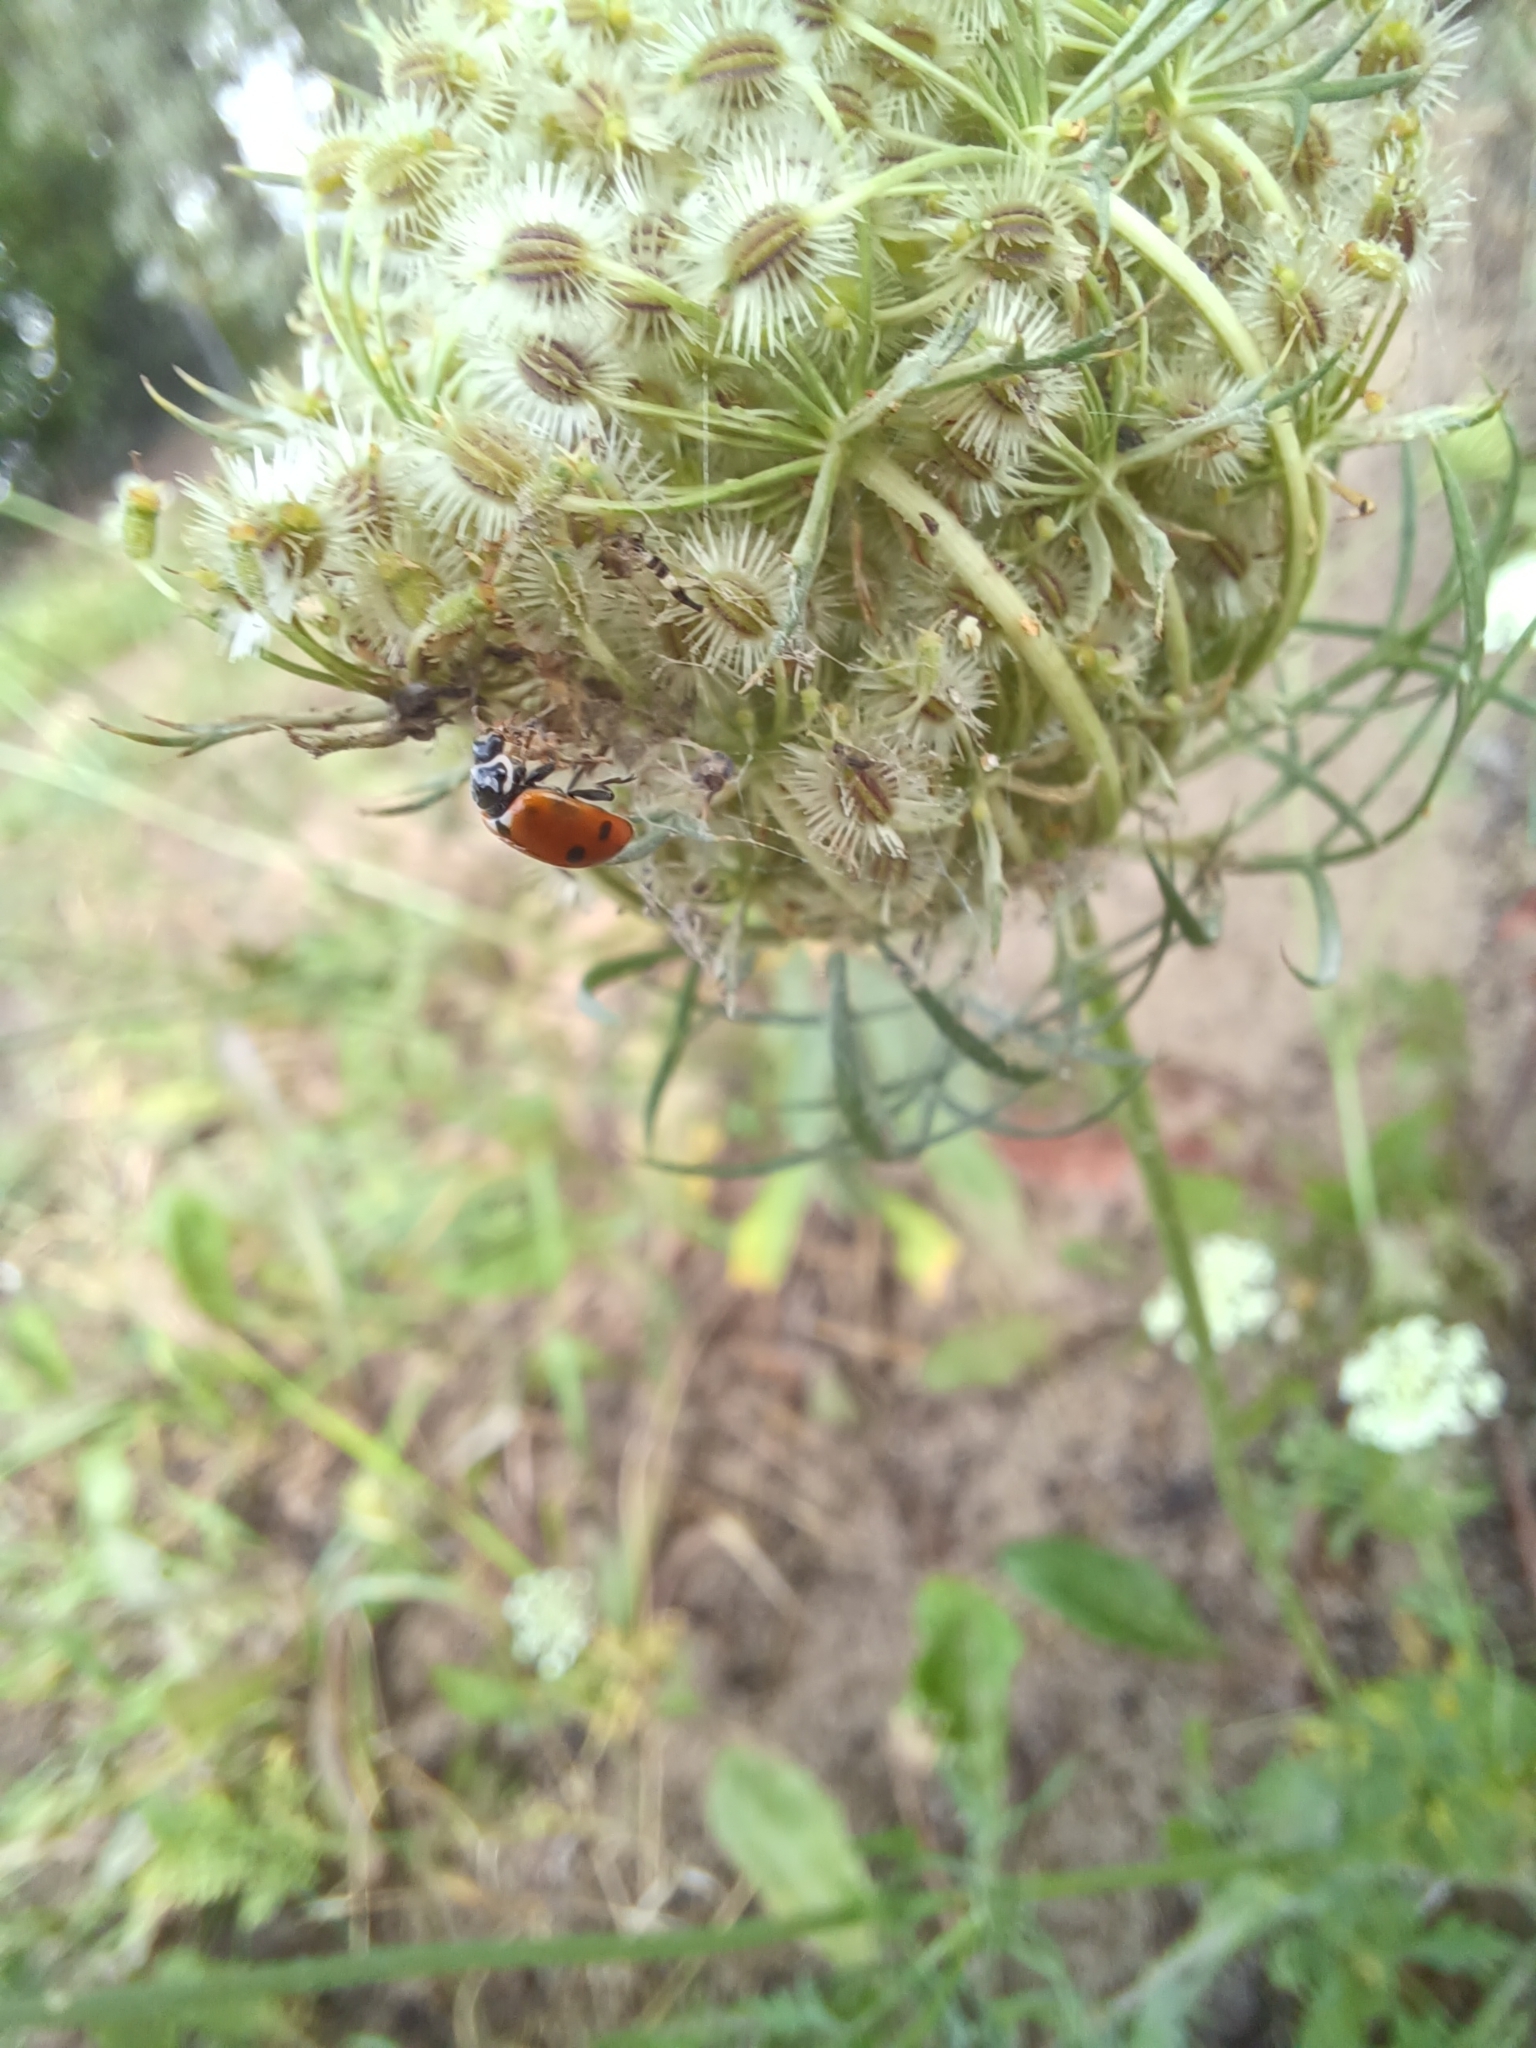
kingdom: Animalia
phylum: Arthropoda
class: Insecta
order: Coleoptera
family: Coccinellidae
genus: Hippodamia
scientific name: Hippodamia variegata
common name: Ladybird beetle
